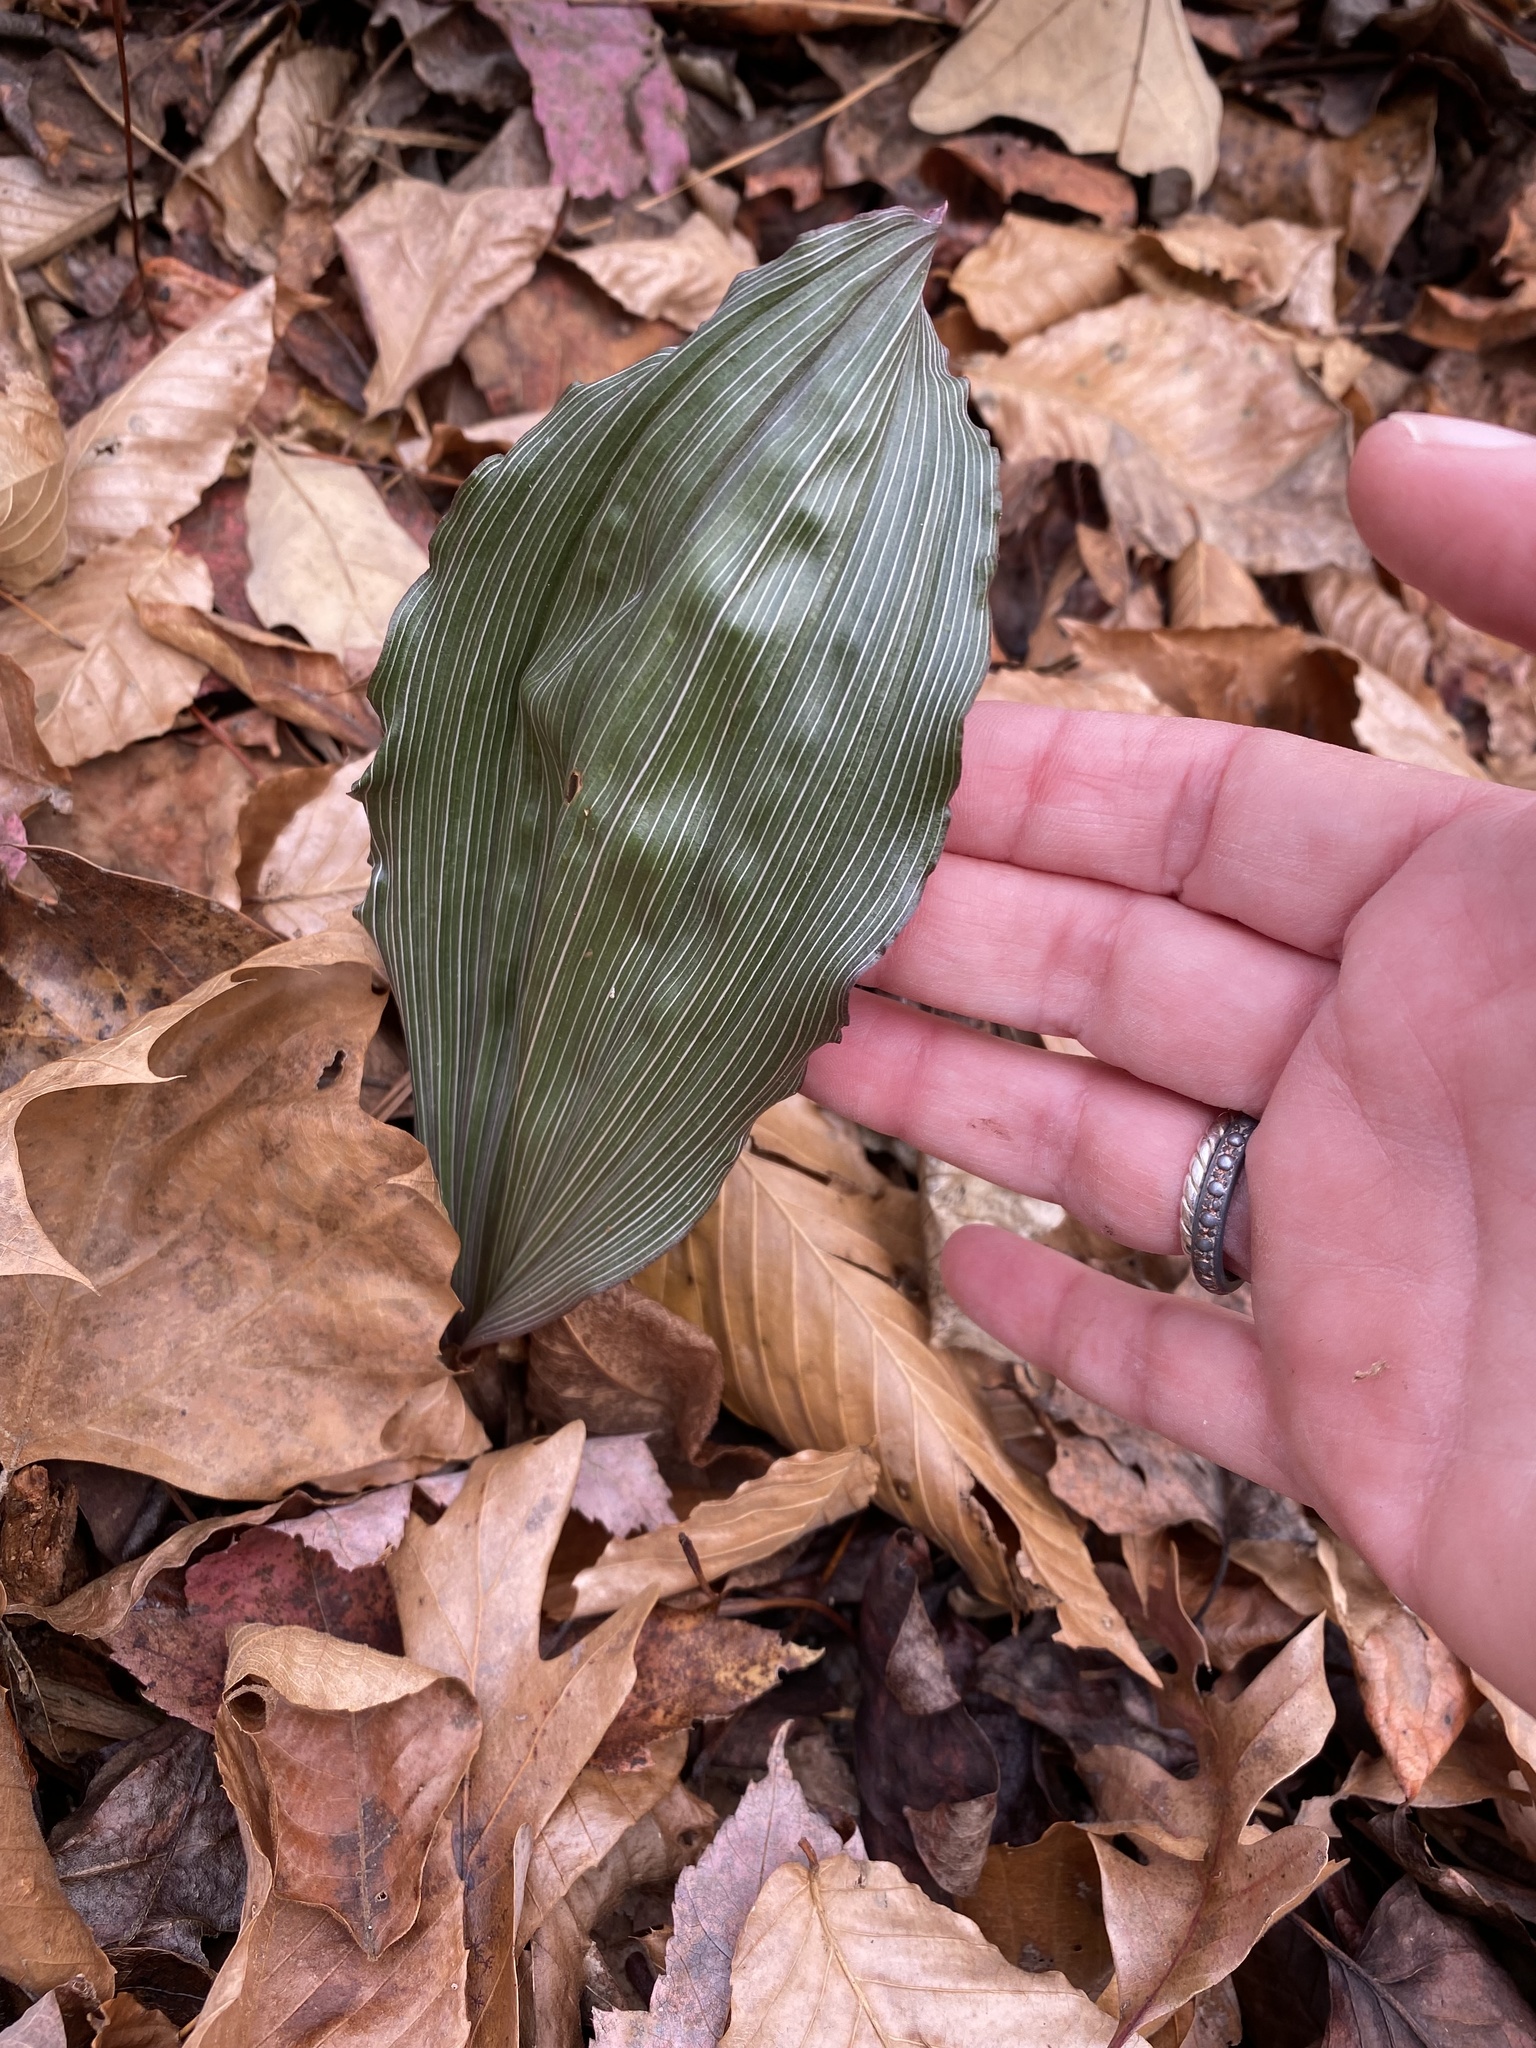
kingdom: Plantae
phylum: Tracheophyta
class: Liliopsida
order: Asparagales
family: Orchidaceae
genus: Aplectrum
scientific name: Aplectrum hyemale
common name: Adam-and-eve
